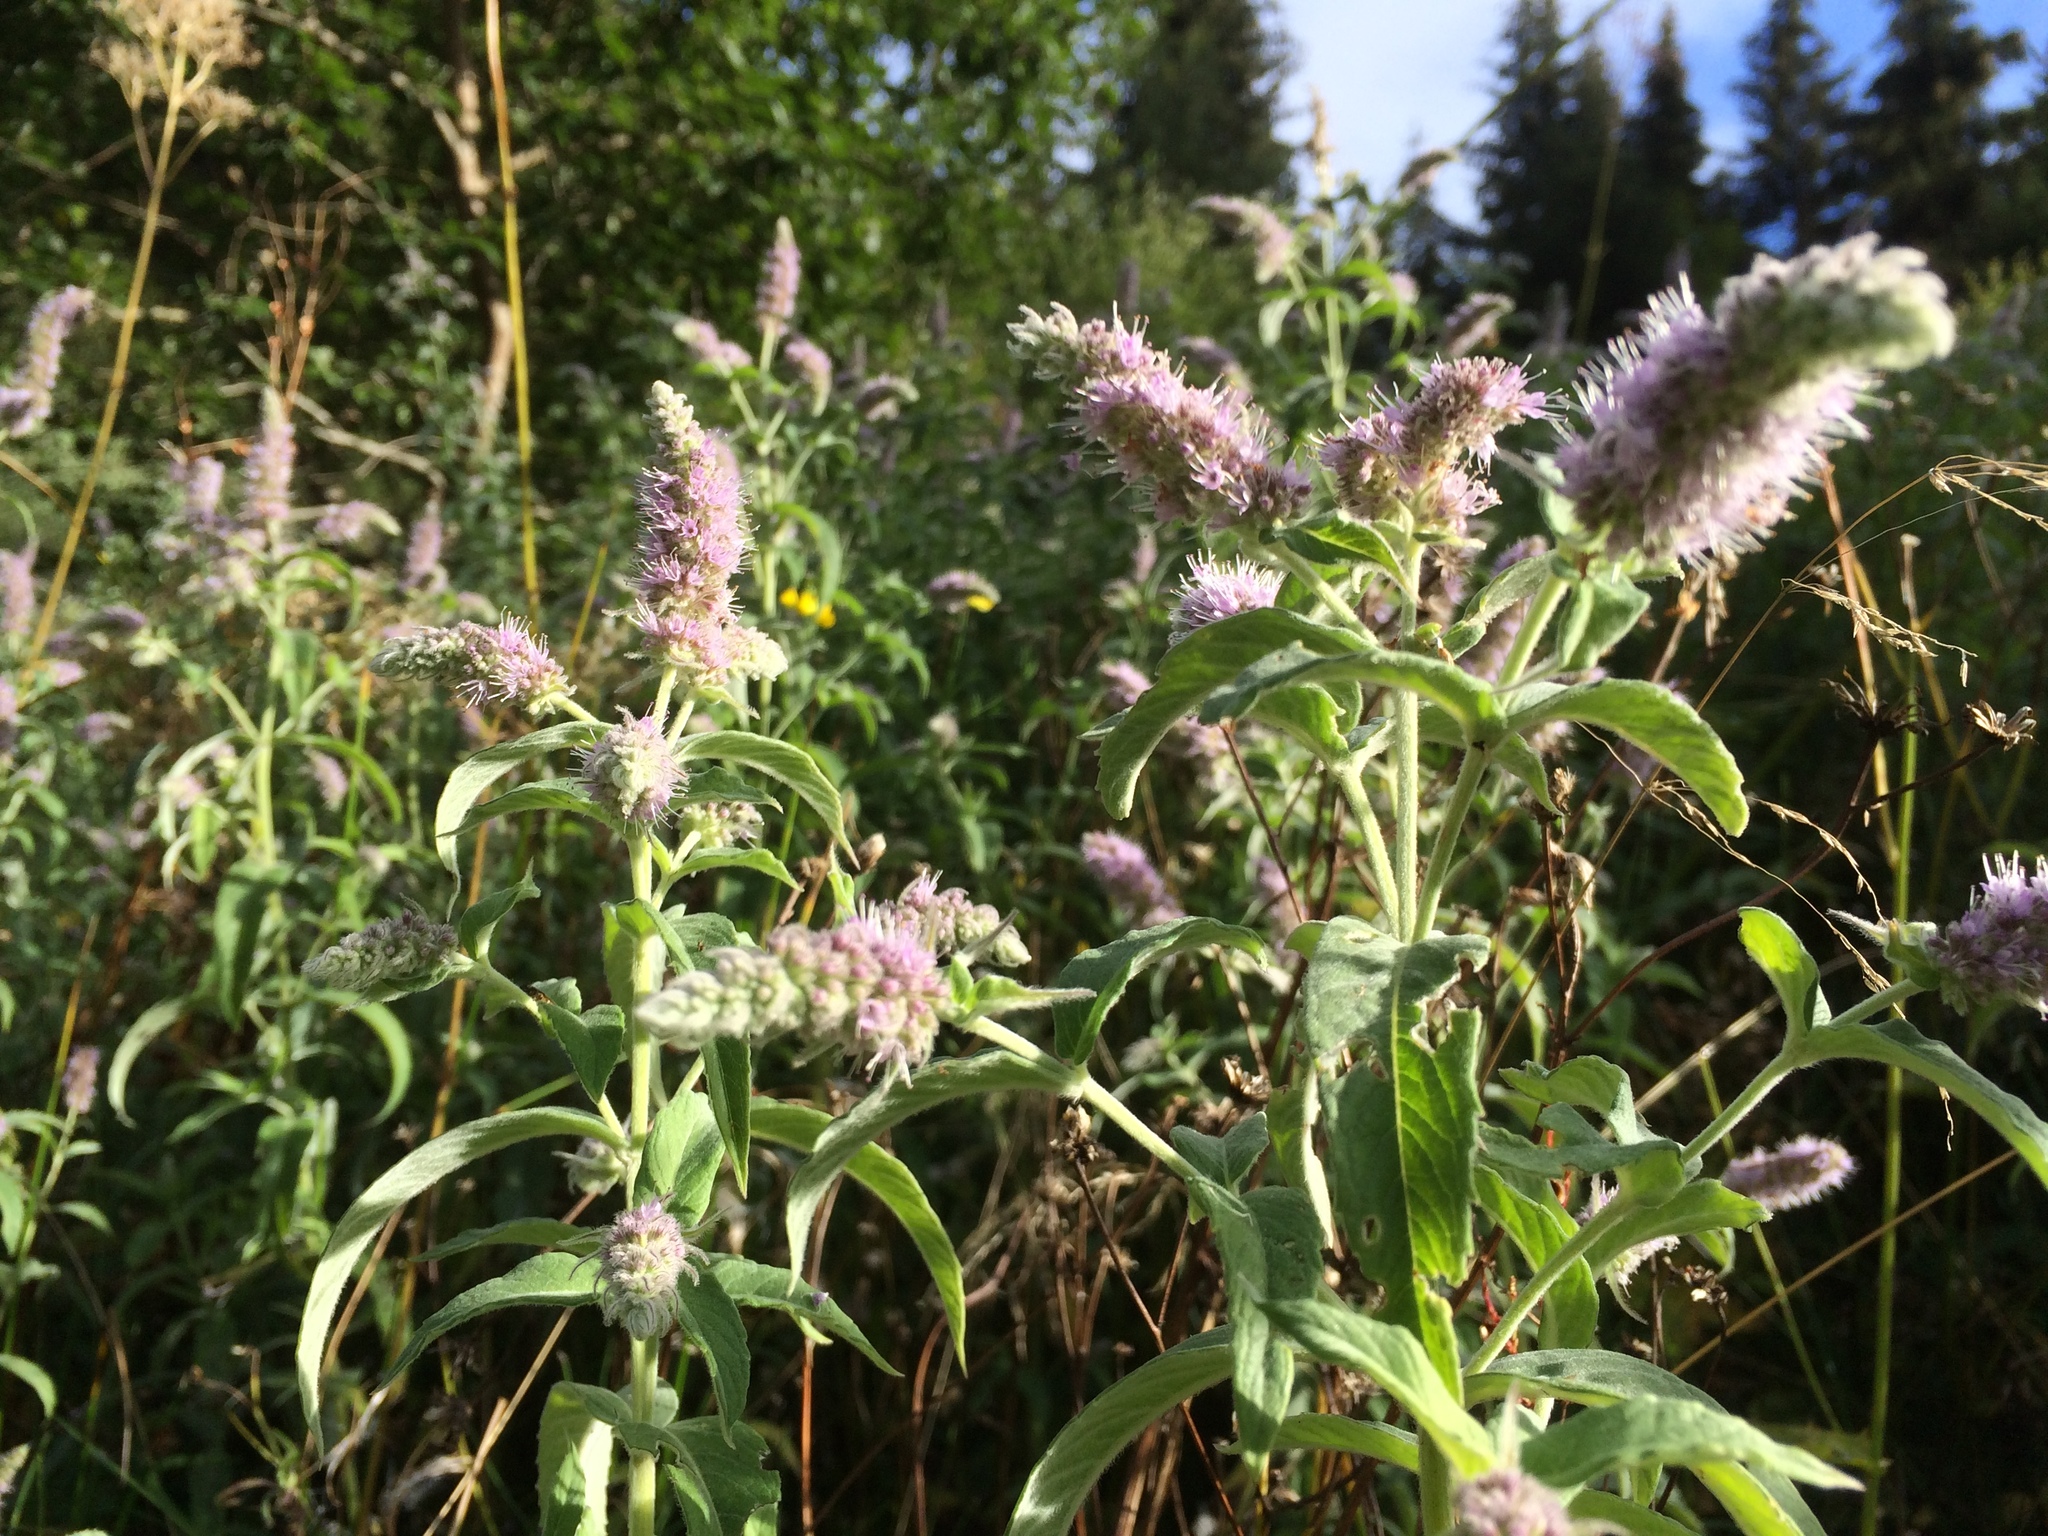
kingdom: Plantae
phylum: Tracheophyta
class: Magnoliopsida
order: Lamiales
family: Lamiaceae
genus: Mentha
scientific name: Mentha longifolia
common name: Horse mint
